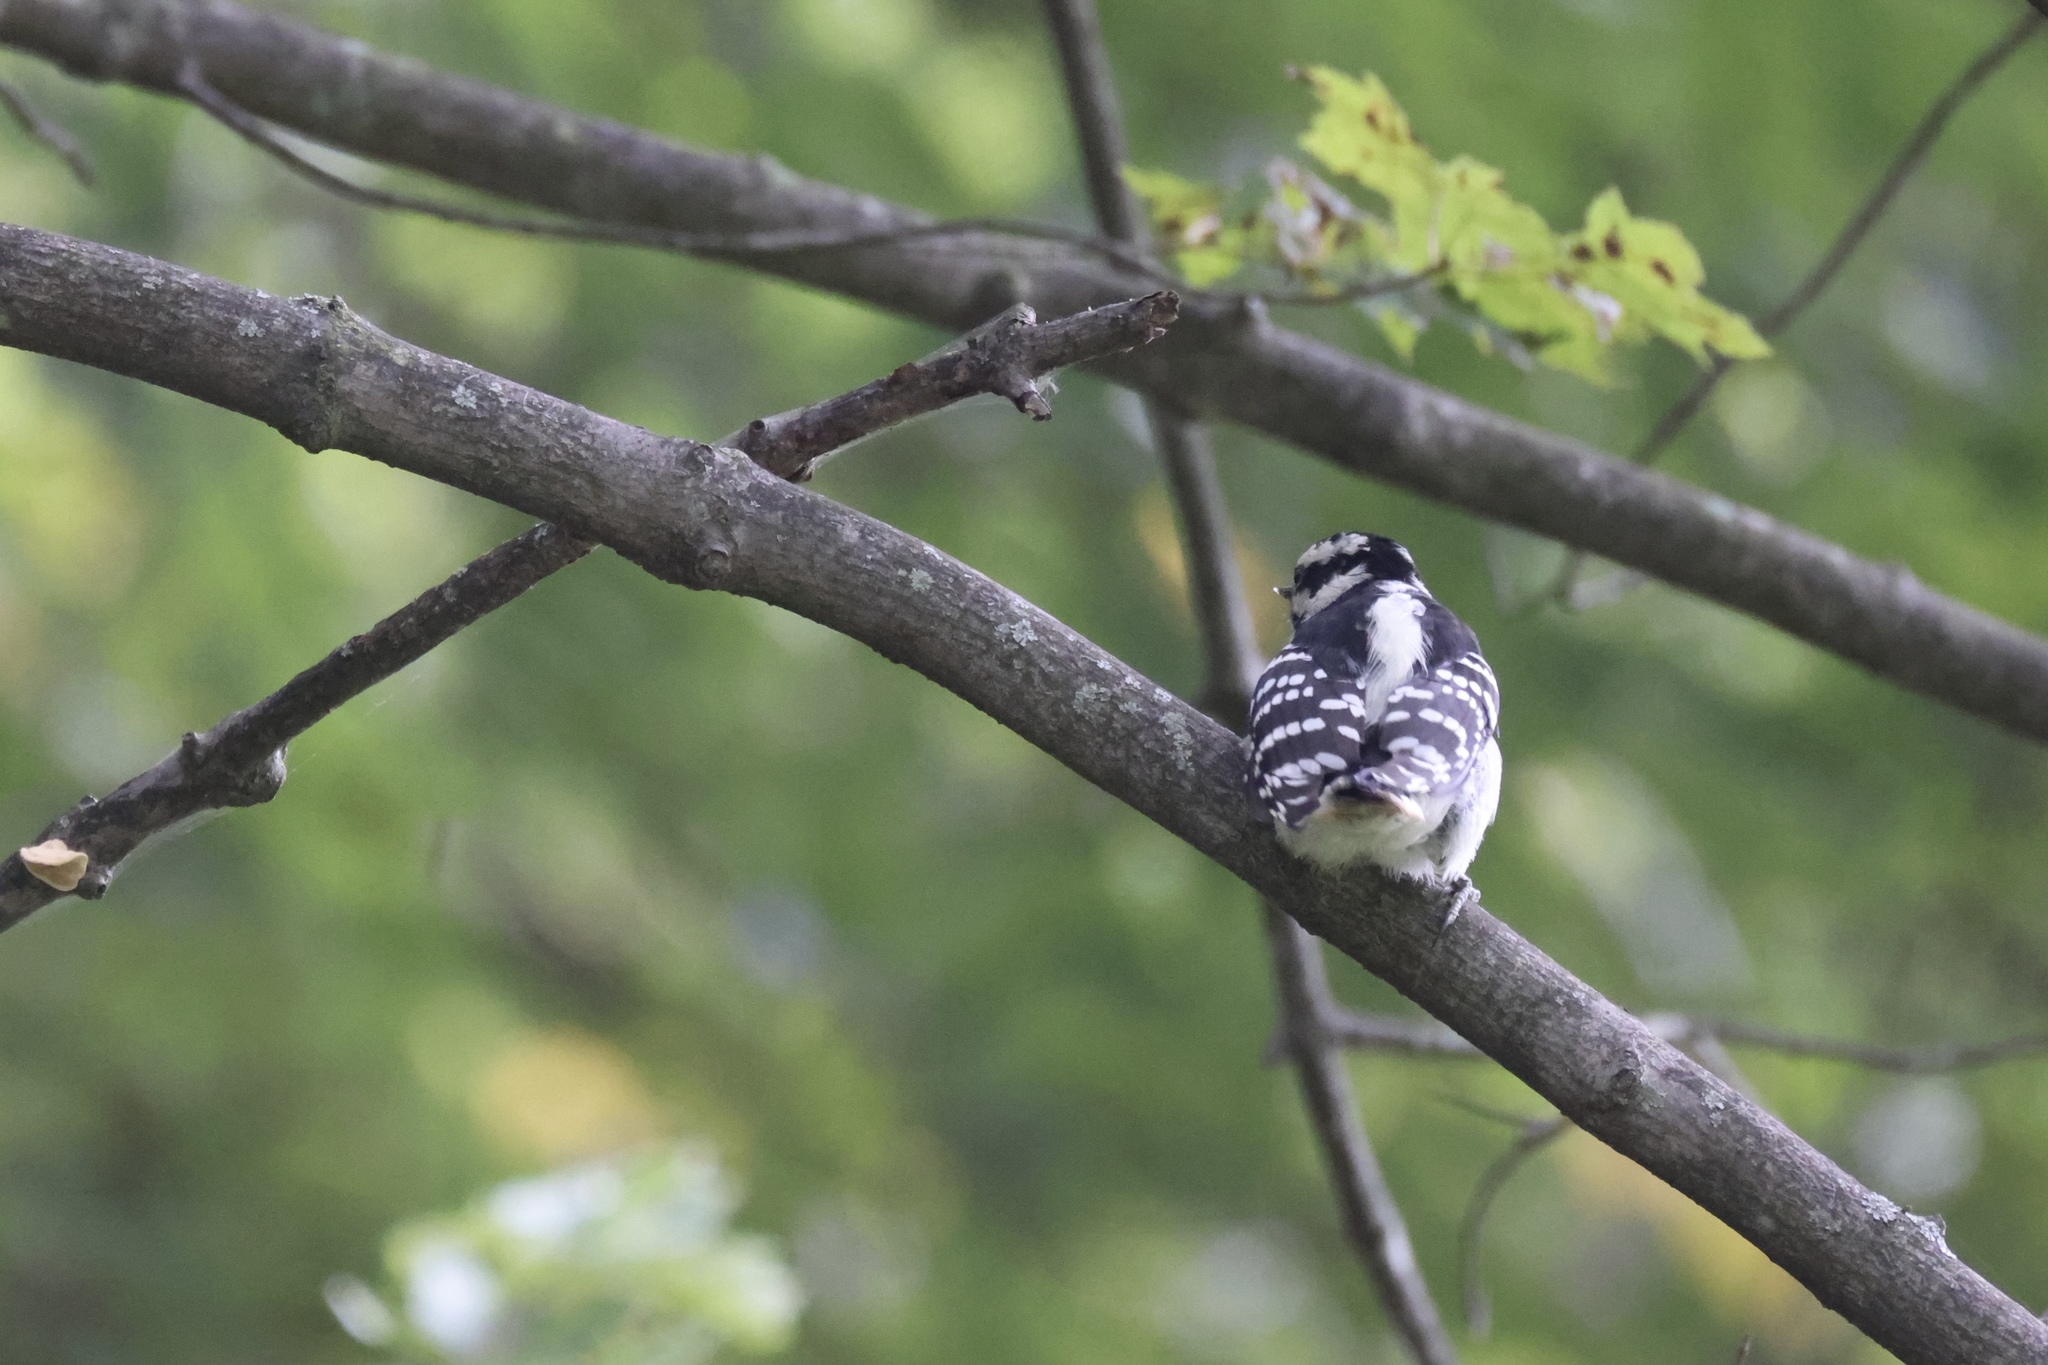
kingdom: Animalia
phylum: Chordata
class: Aves
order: Piciformes
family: Picidae
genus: Dryobates
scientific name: Dryobates pubescens
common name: Downy woodpecker
